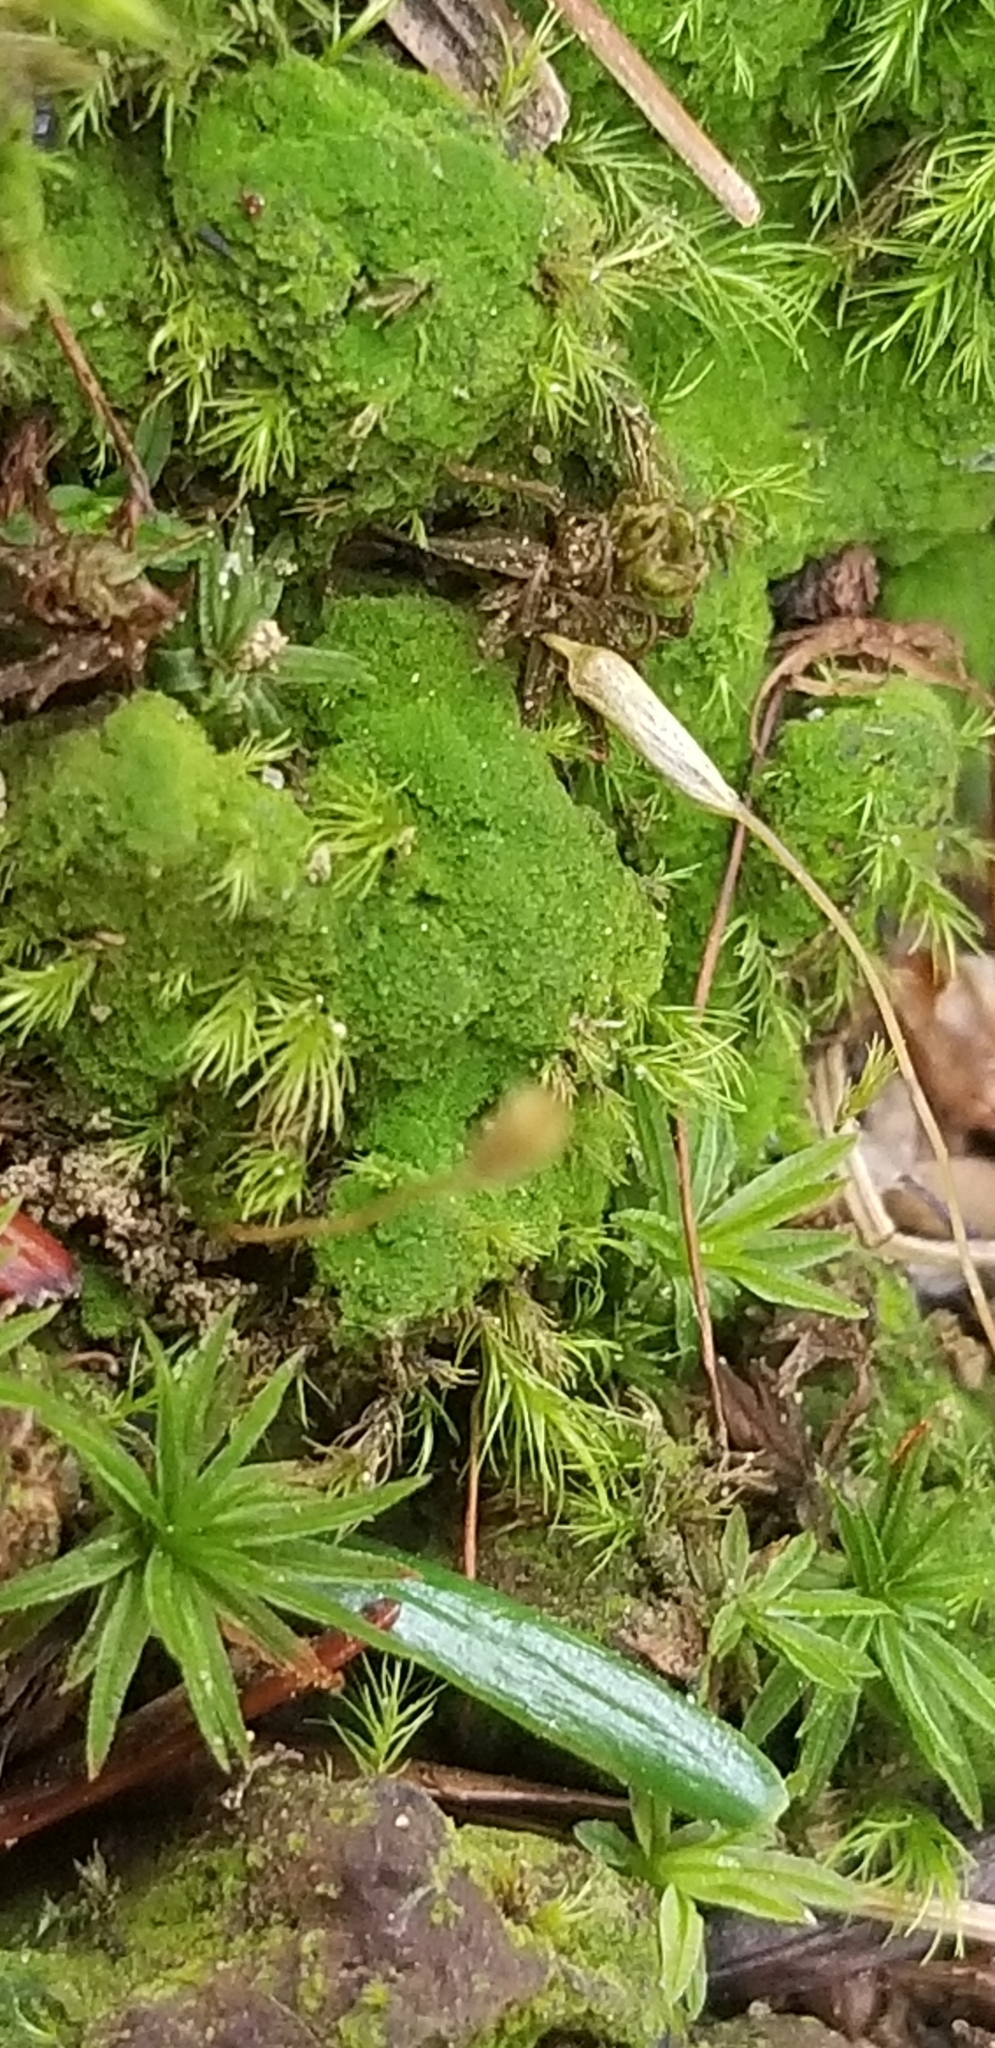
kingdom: Plantae
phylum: Bryophyta
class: Polytrichopsida
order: Polytrichales
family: Polytrichaceae
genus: Pogonatum
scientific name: Pogonatum pensilvanicum
